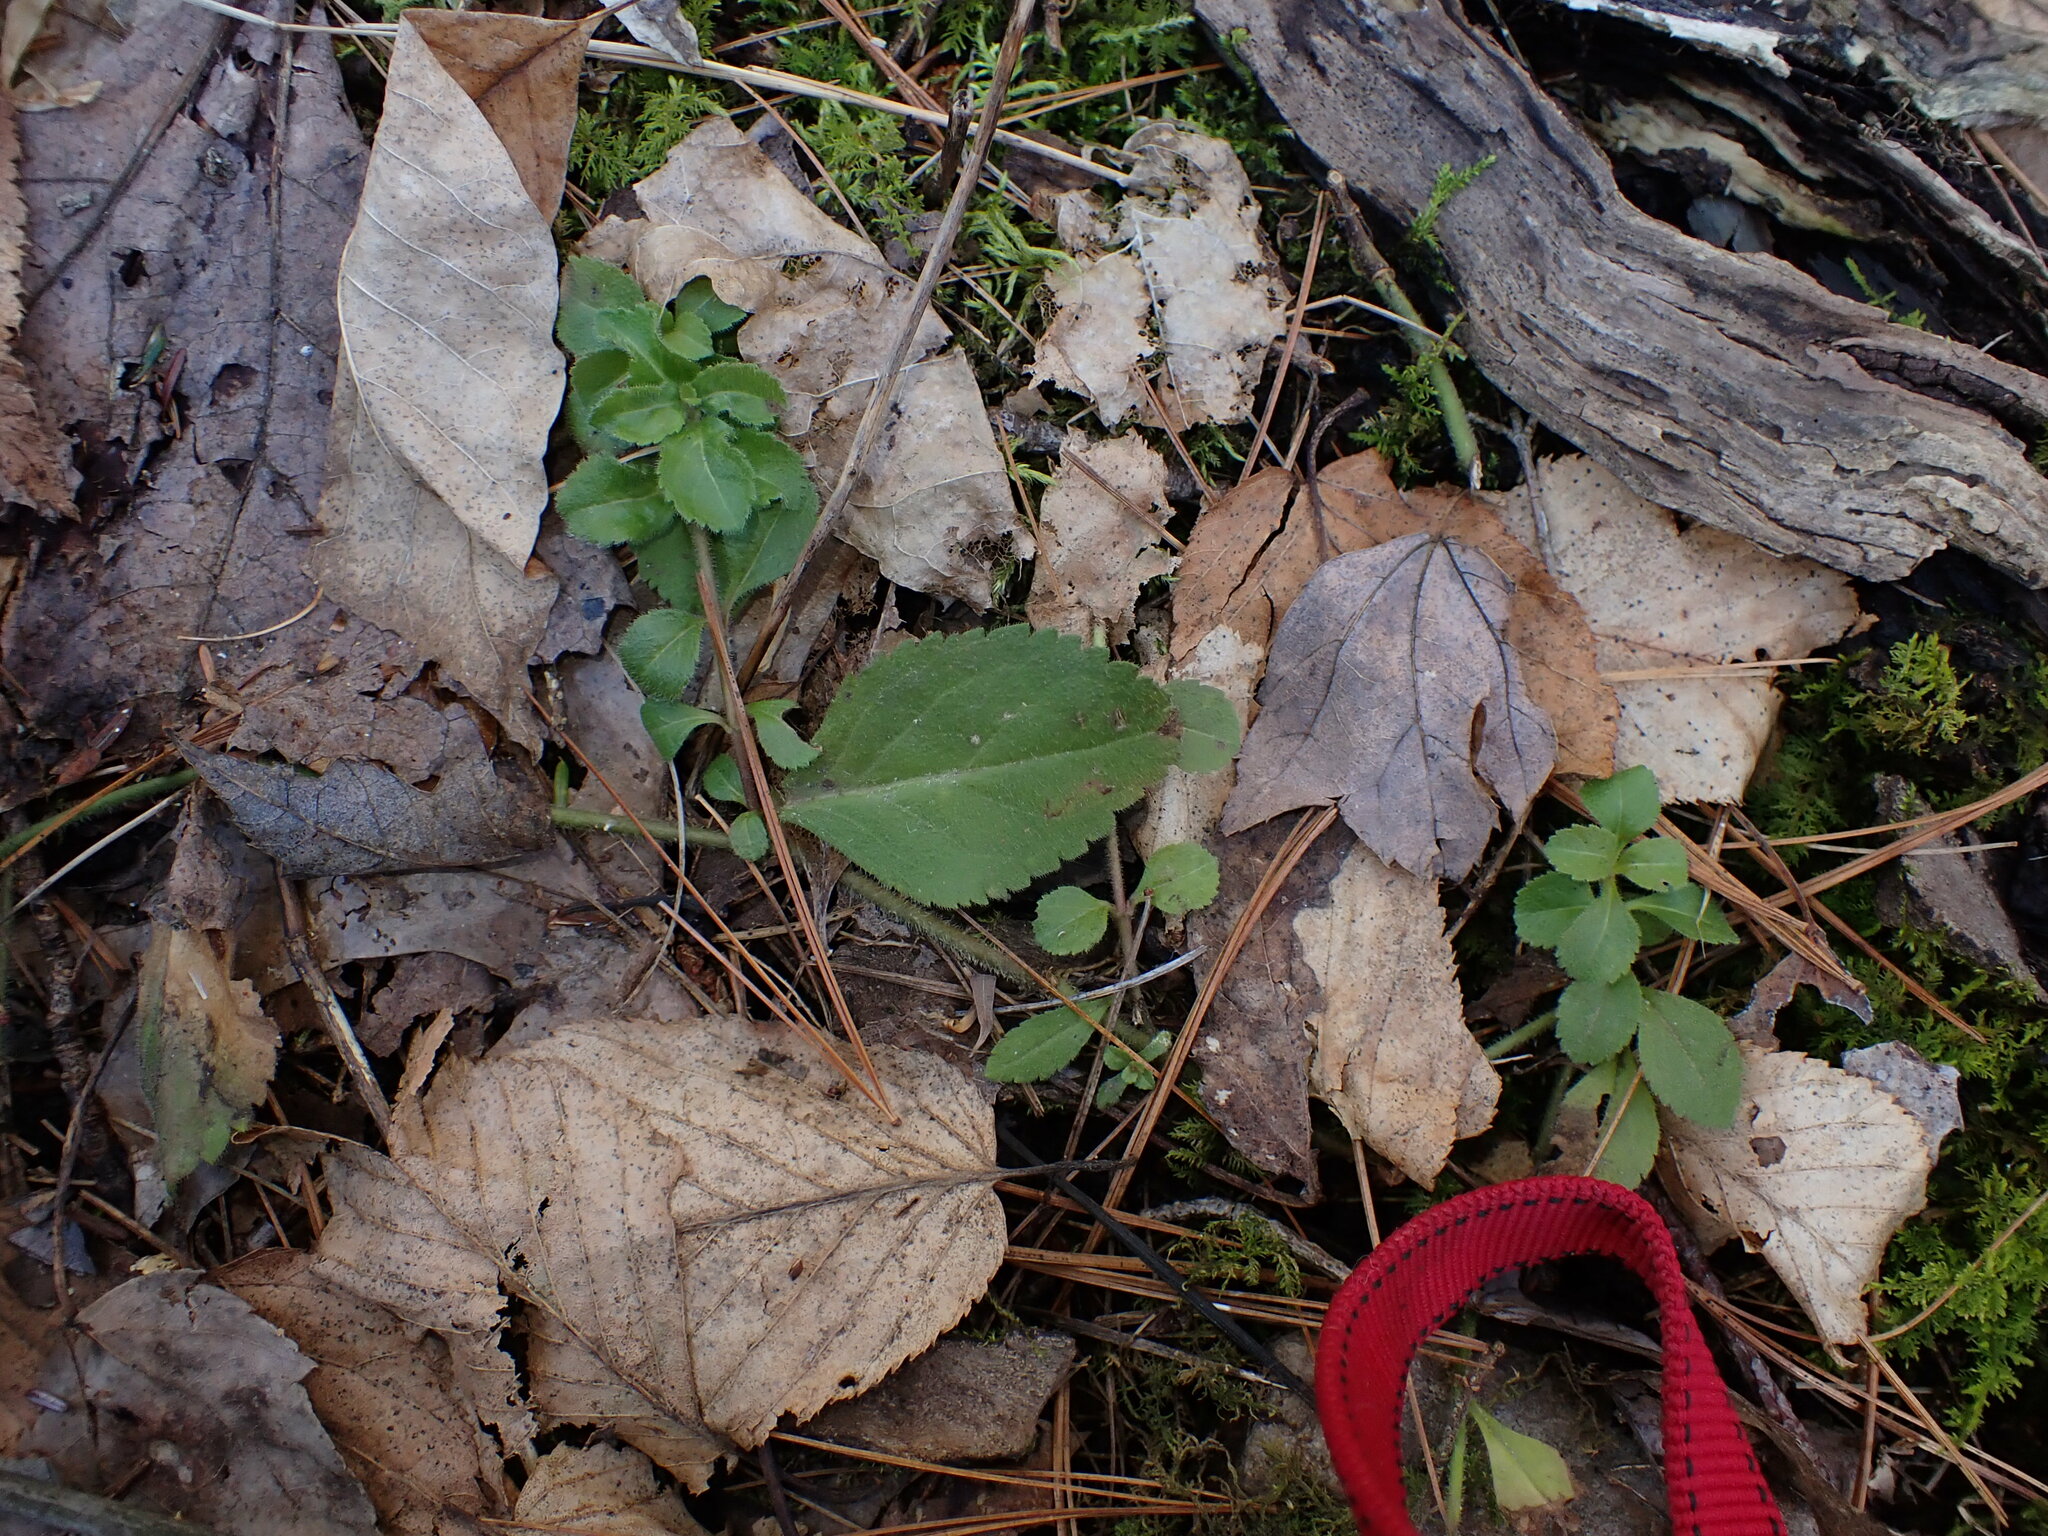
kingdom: Animalia
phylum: Arthropoda
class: Insecta
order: Diptera
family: Agromyzidae
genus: Phytomyza
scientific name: Phytomyza crassiseta
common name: Leaf-miner fly
